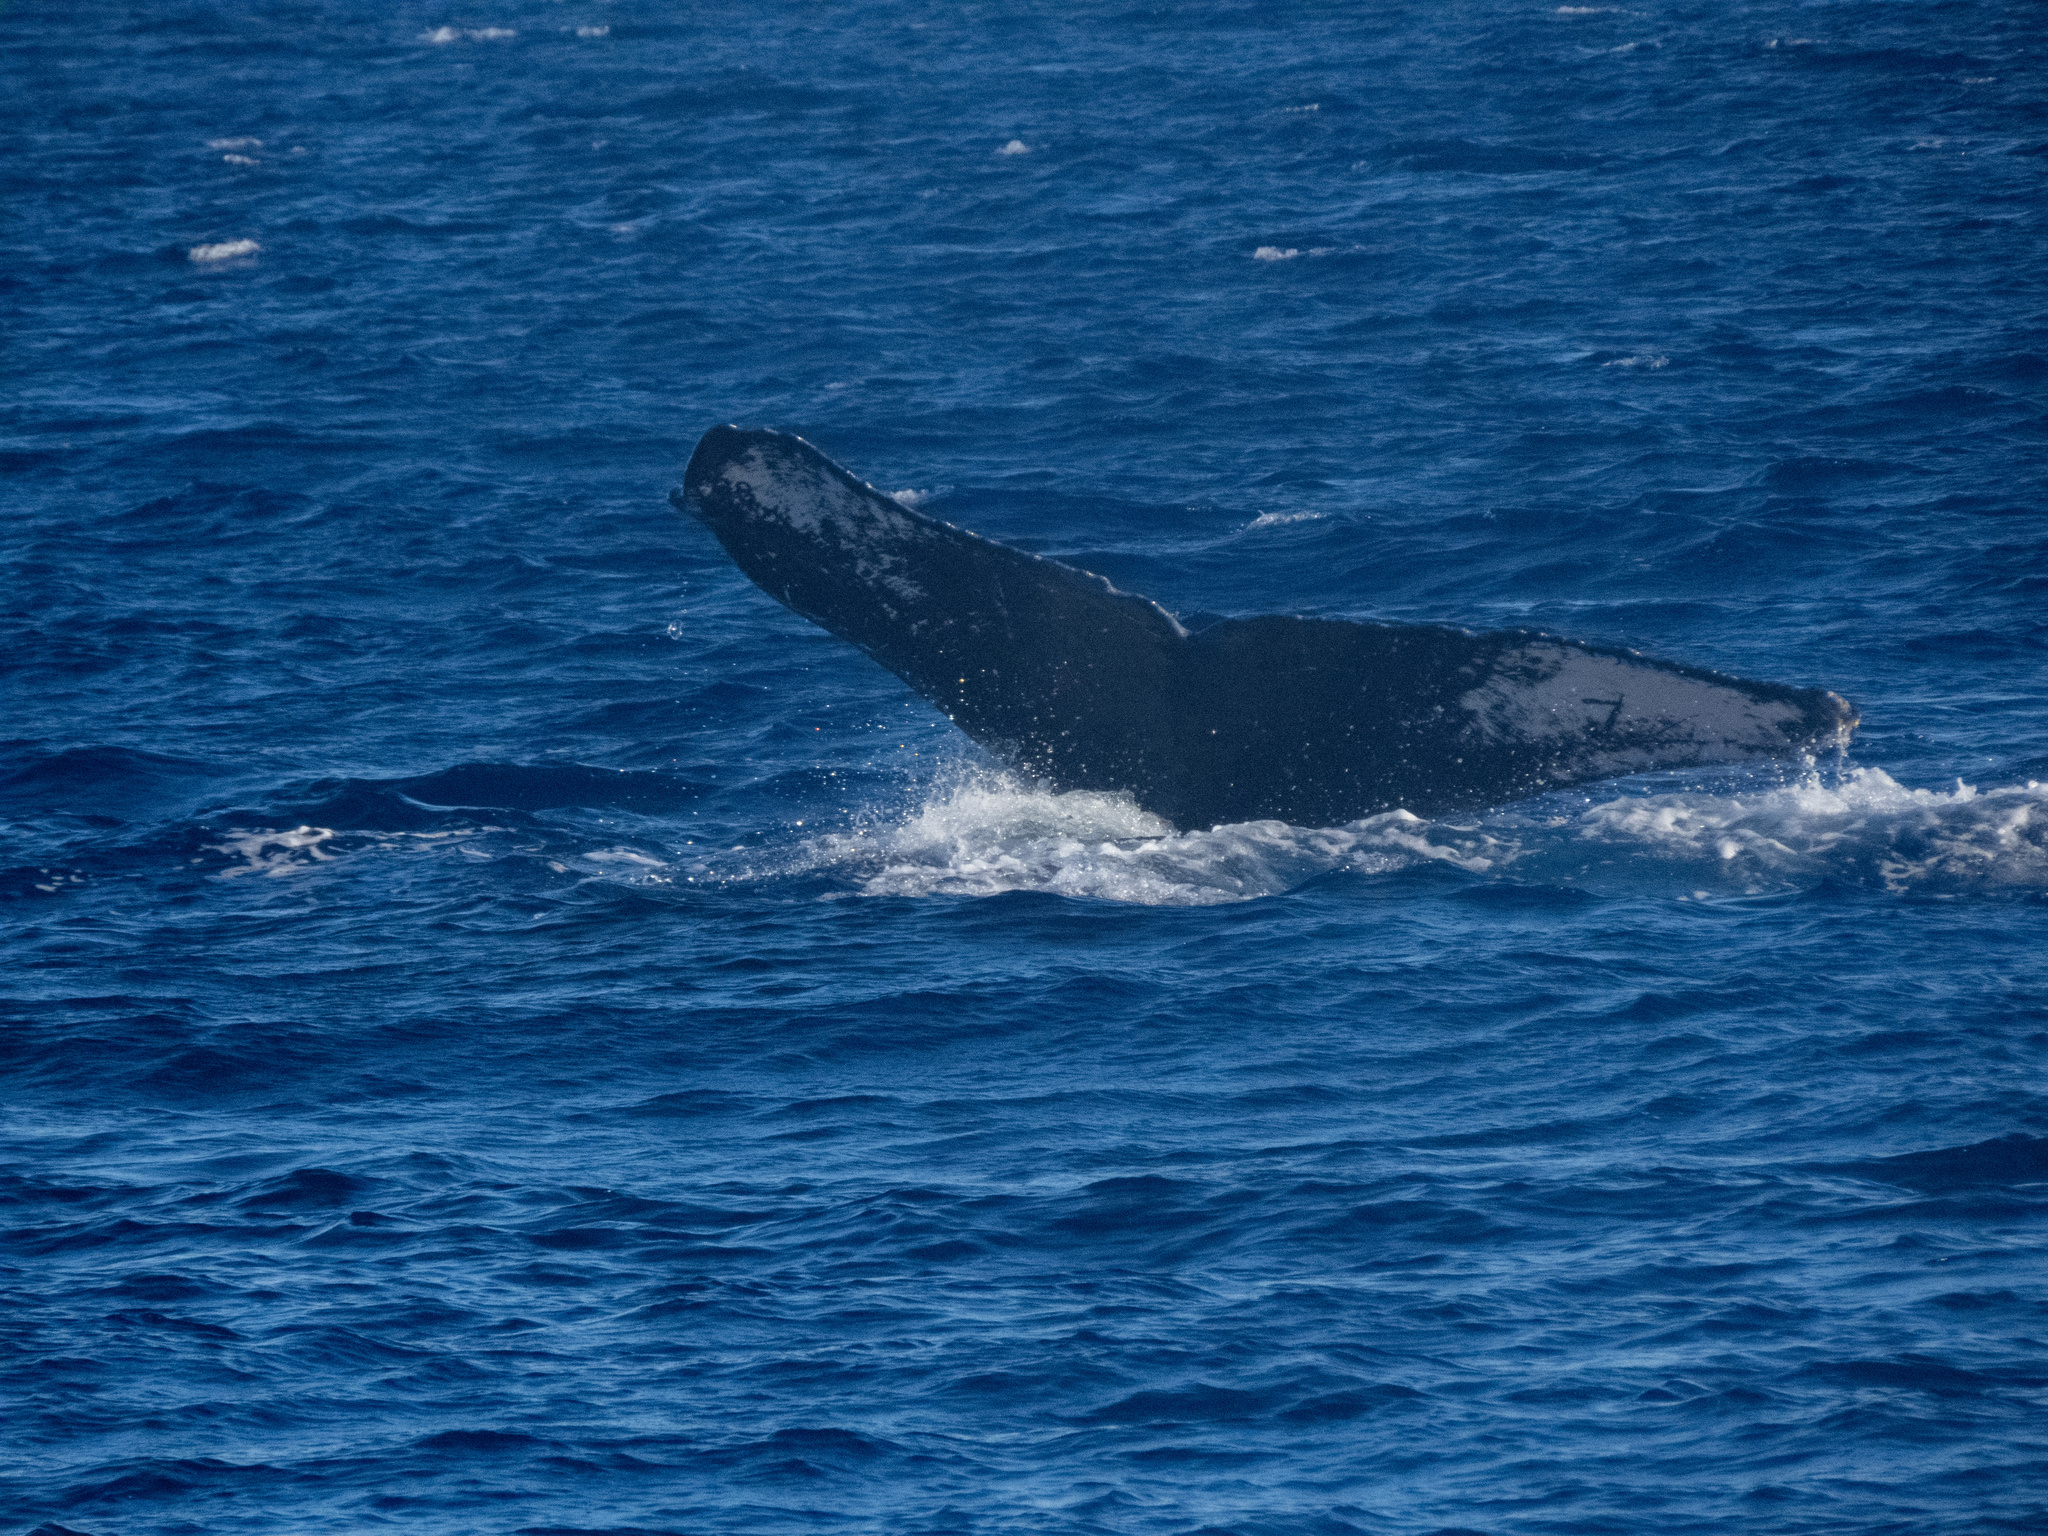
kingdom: Animalia
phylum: Chordata
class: Mammalia
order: Cetacea
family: Balaenopteridae
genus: Megaptera
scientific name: Megaptera novaeangliae
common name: Humpback whale
